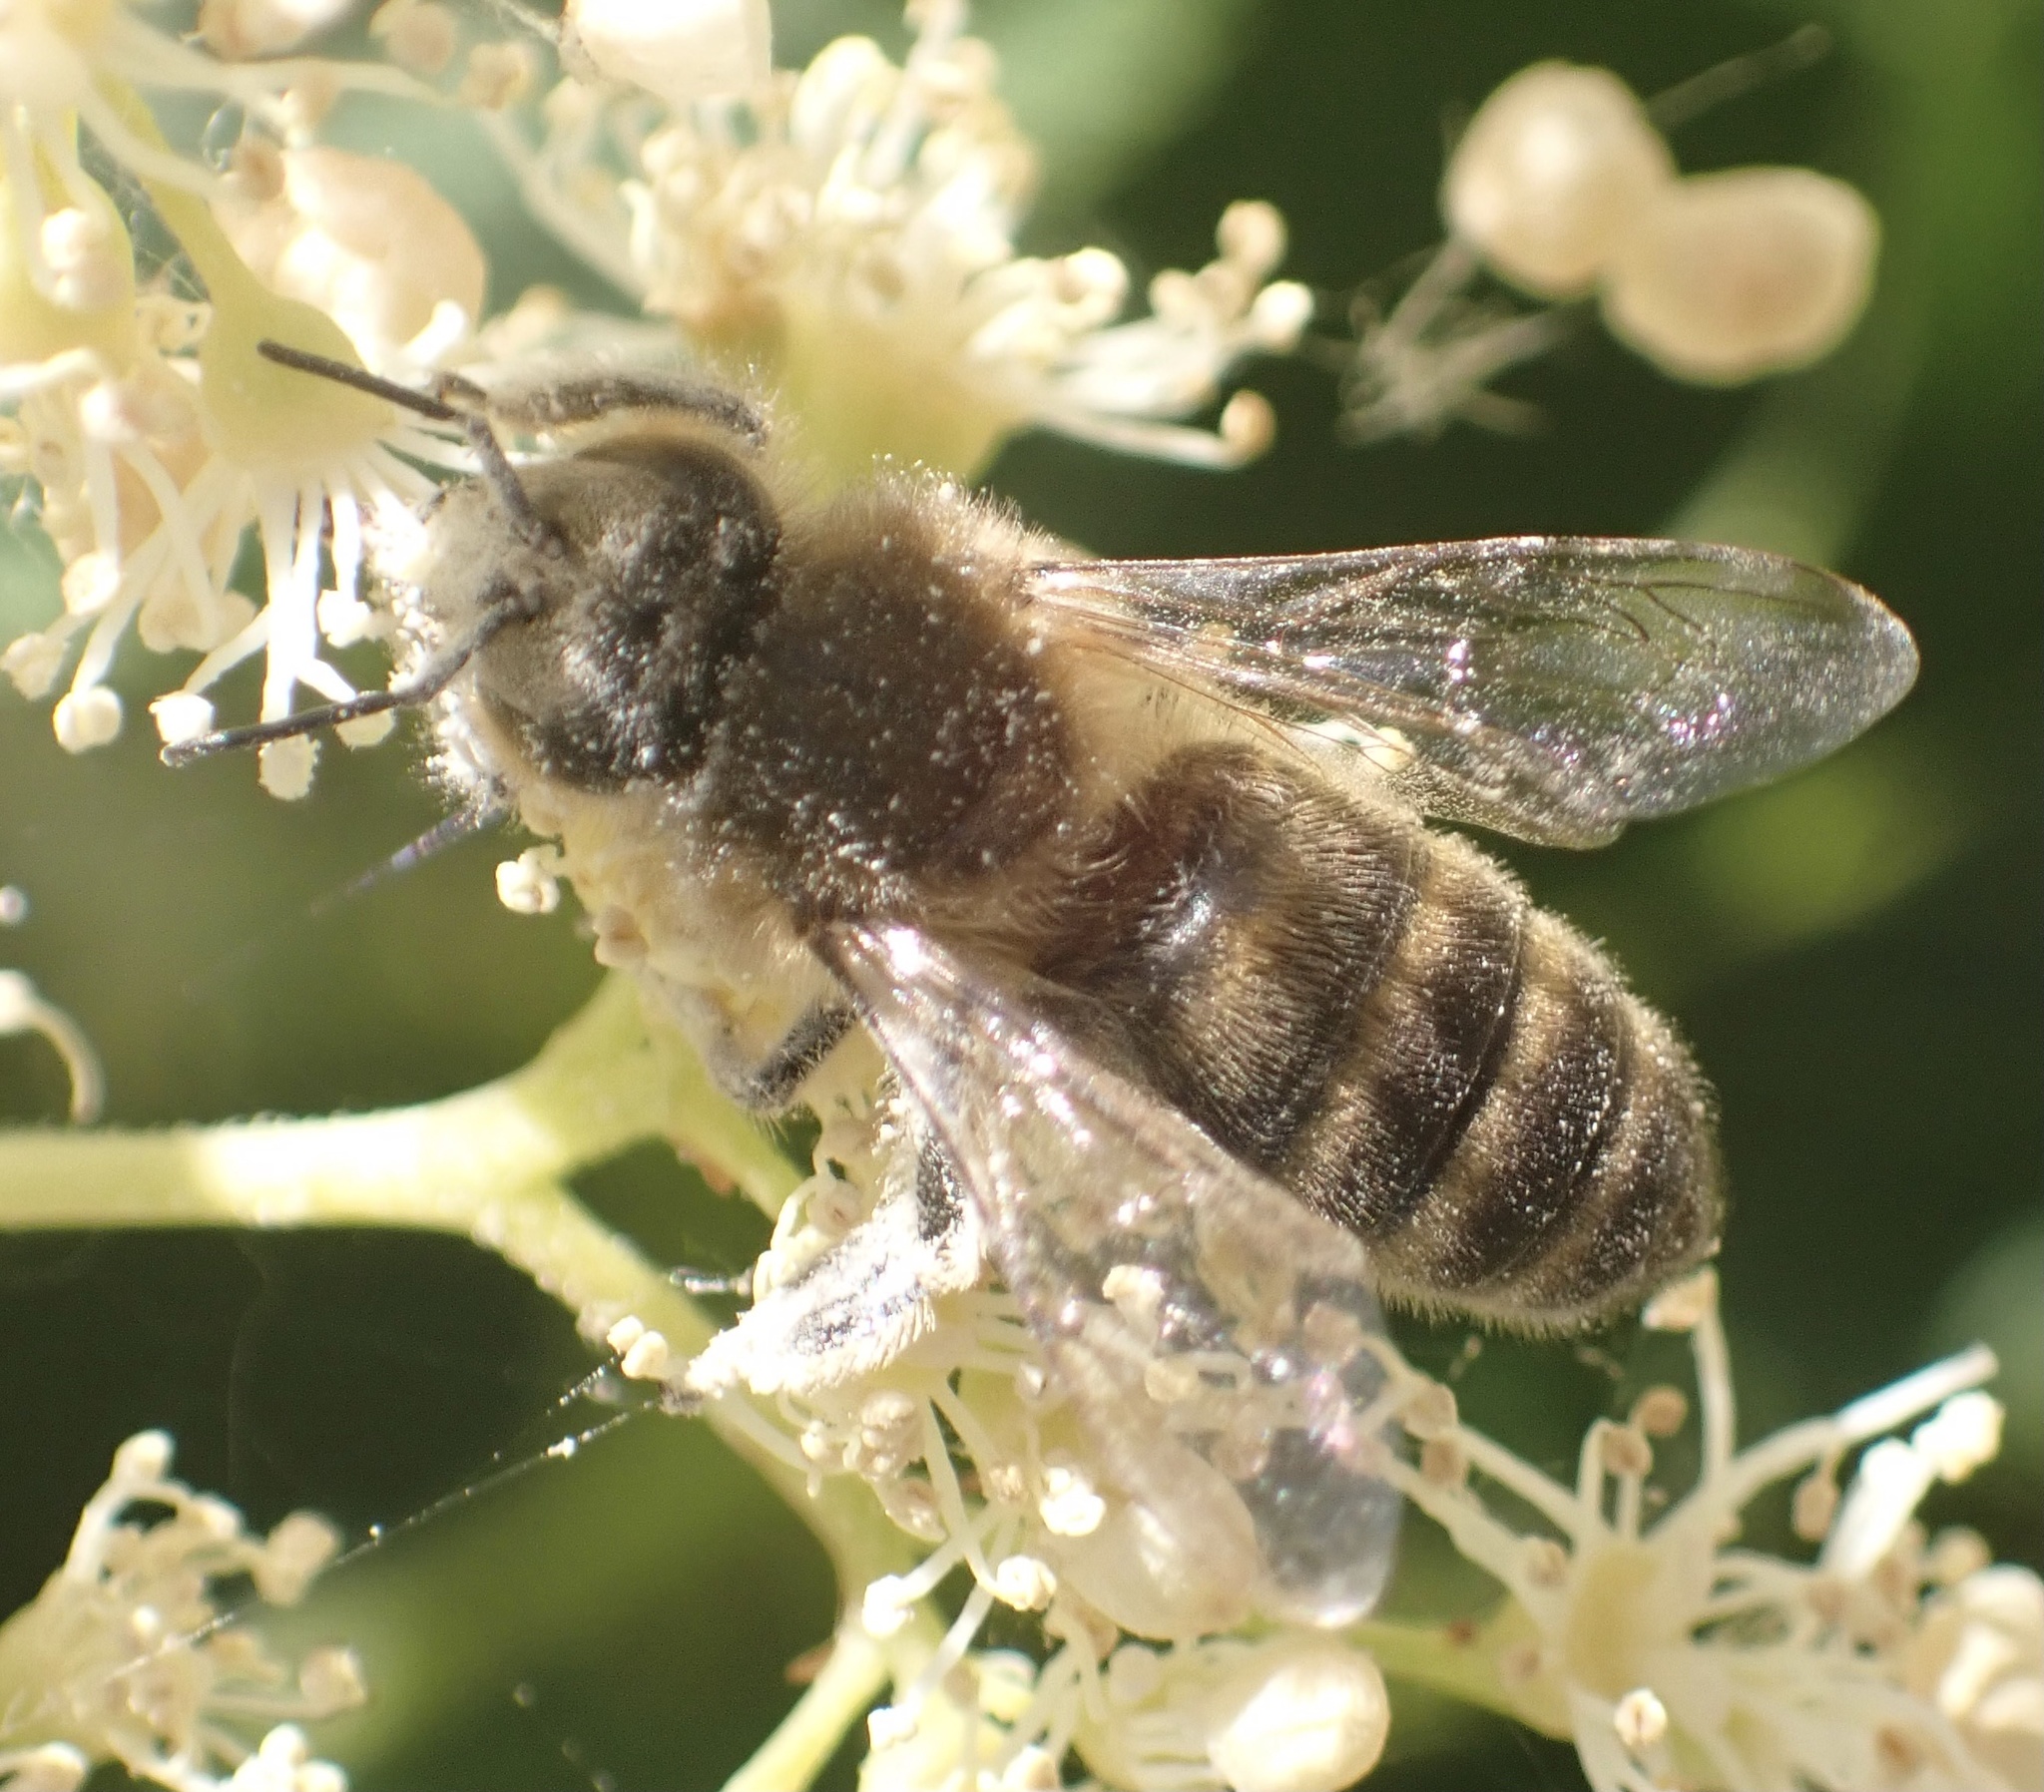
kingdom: Animalia
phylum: Arthropoda
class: Insecta
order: Hymenoptera
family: Apidae
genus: Apis
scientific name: Apis mellifera
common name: Honey bee
